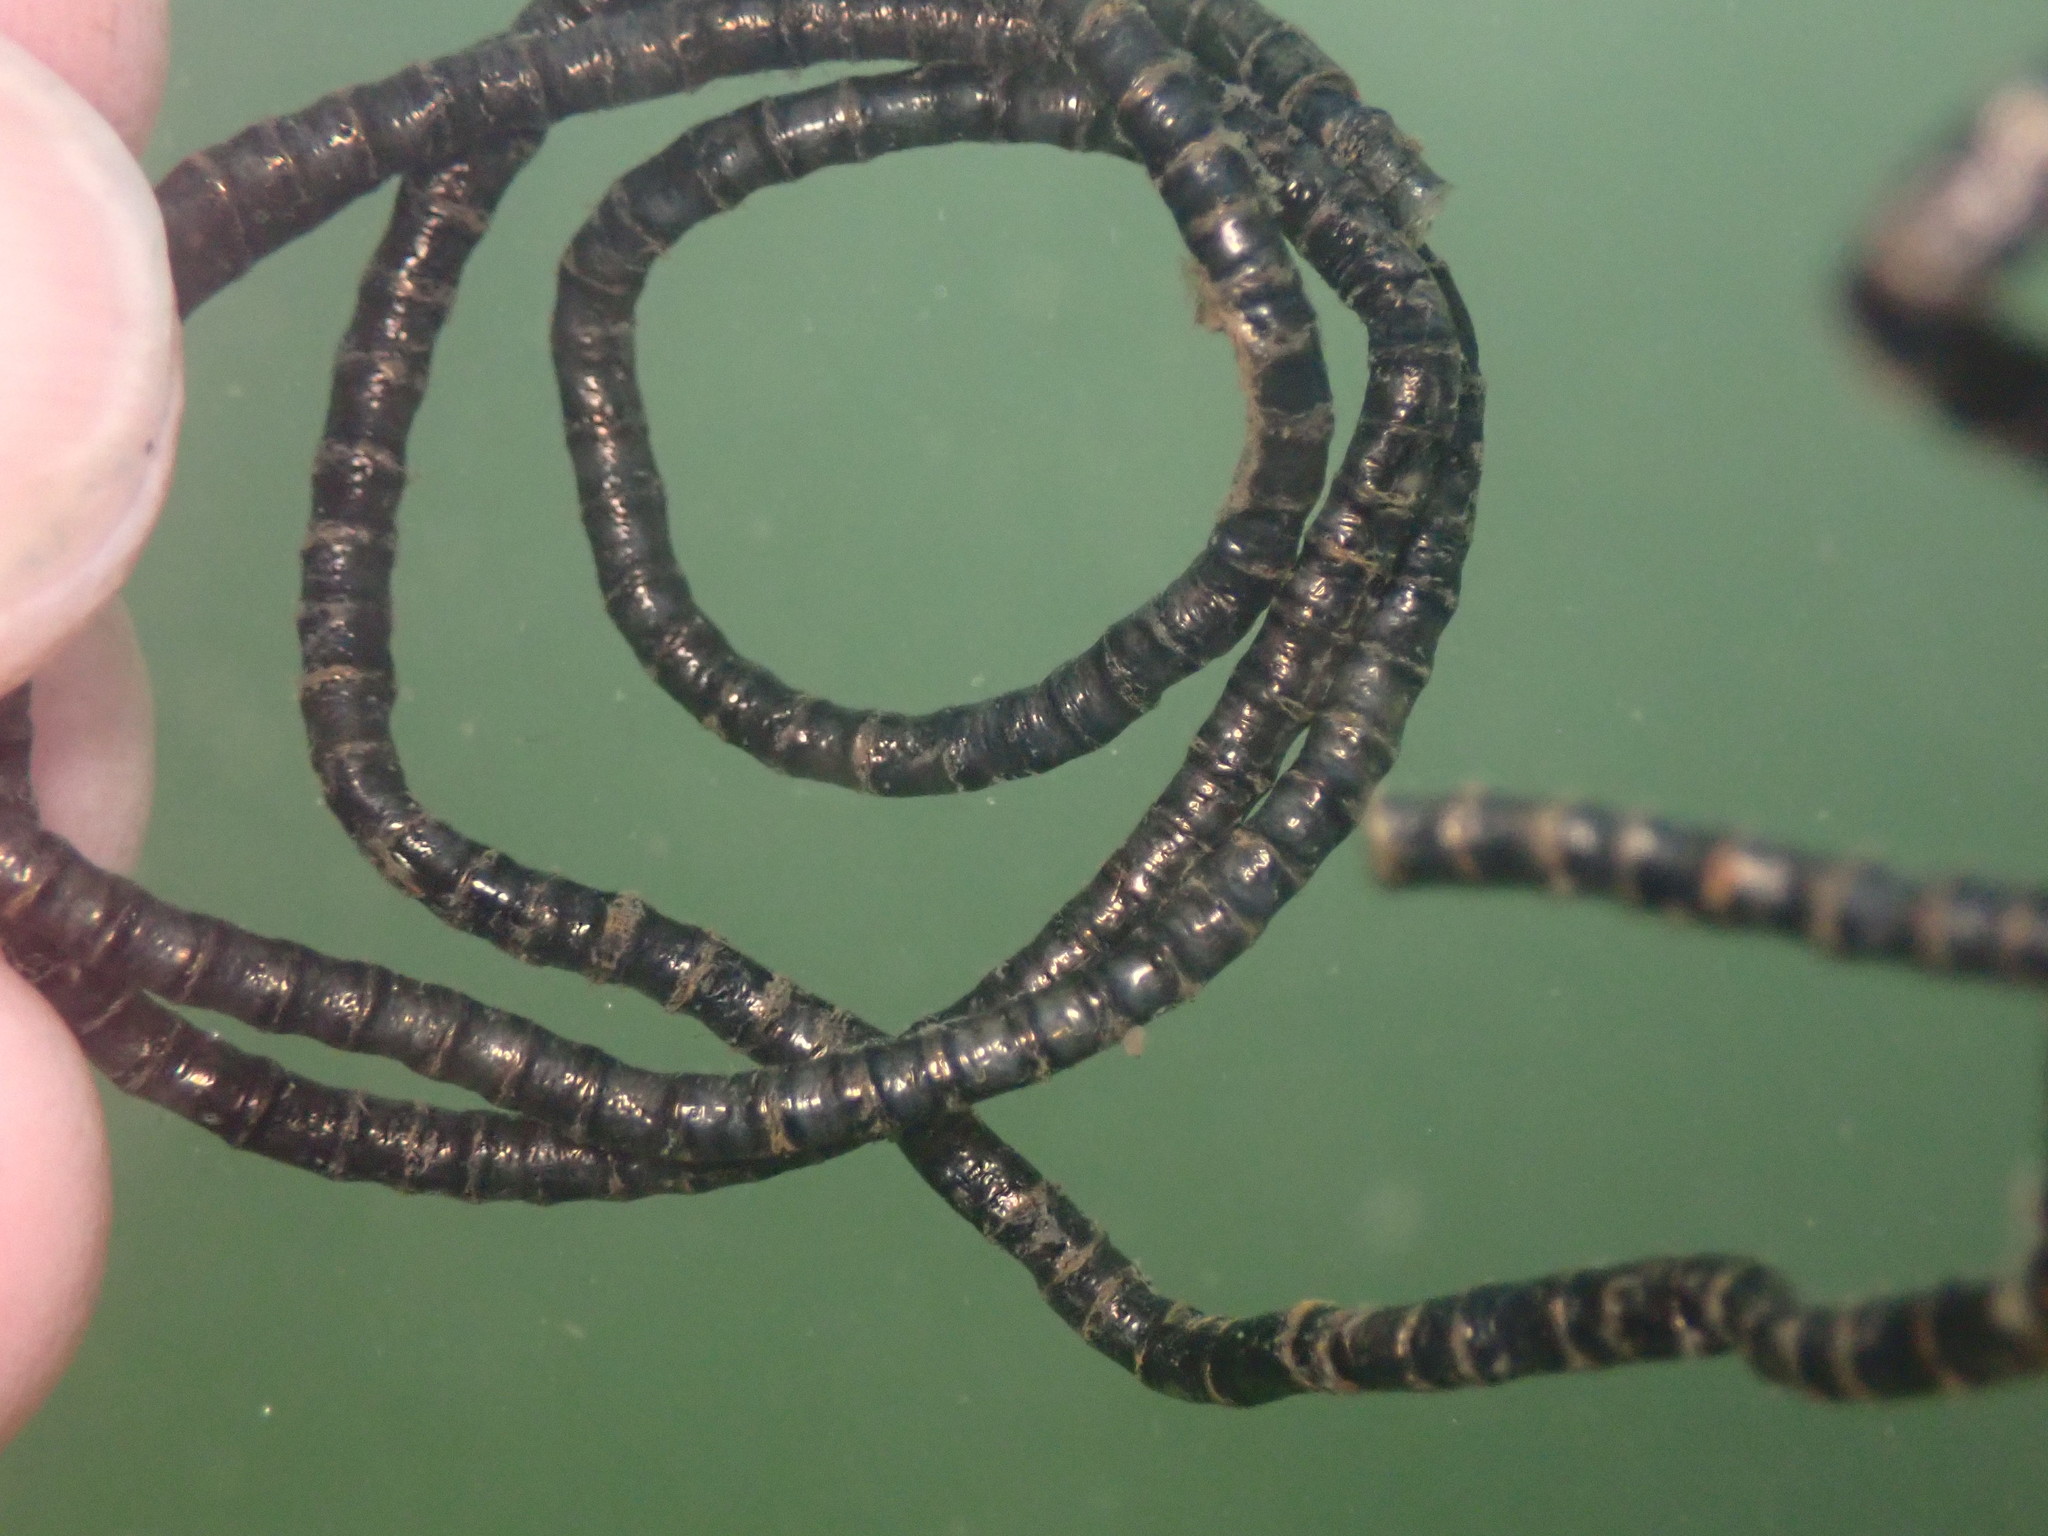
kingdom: Plantae
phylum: Chlorophyta
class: Ulvophyceae
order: Cladophorales
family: Cladophoraceae
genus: Chaetomorpha
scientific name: Chaetomorpha spiralis
